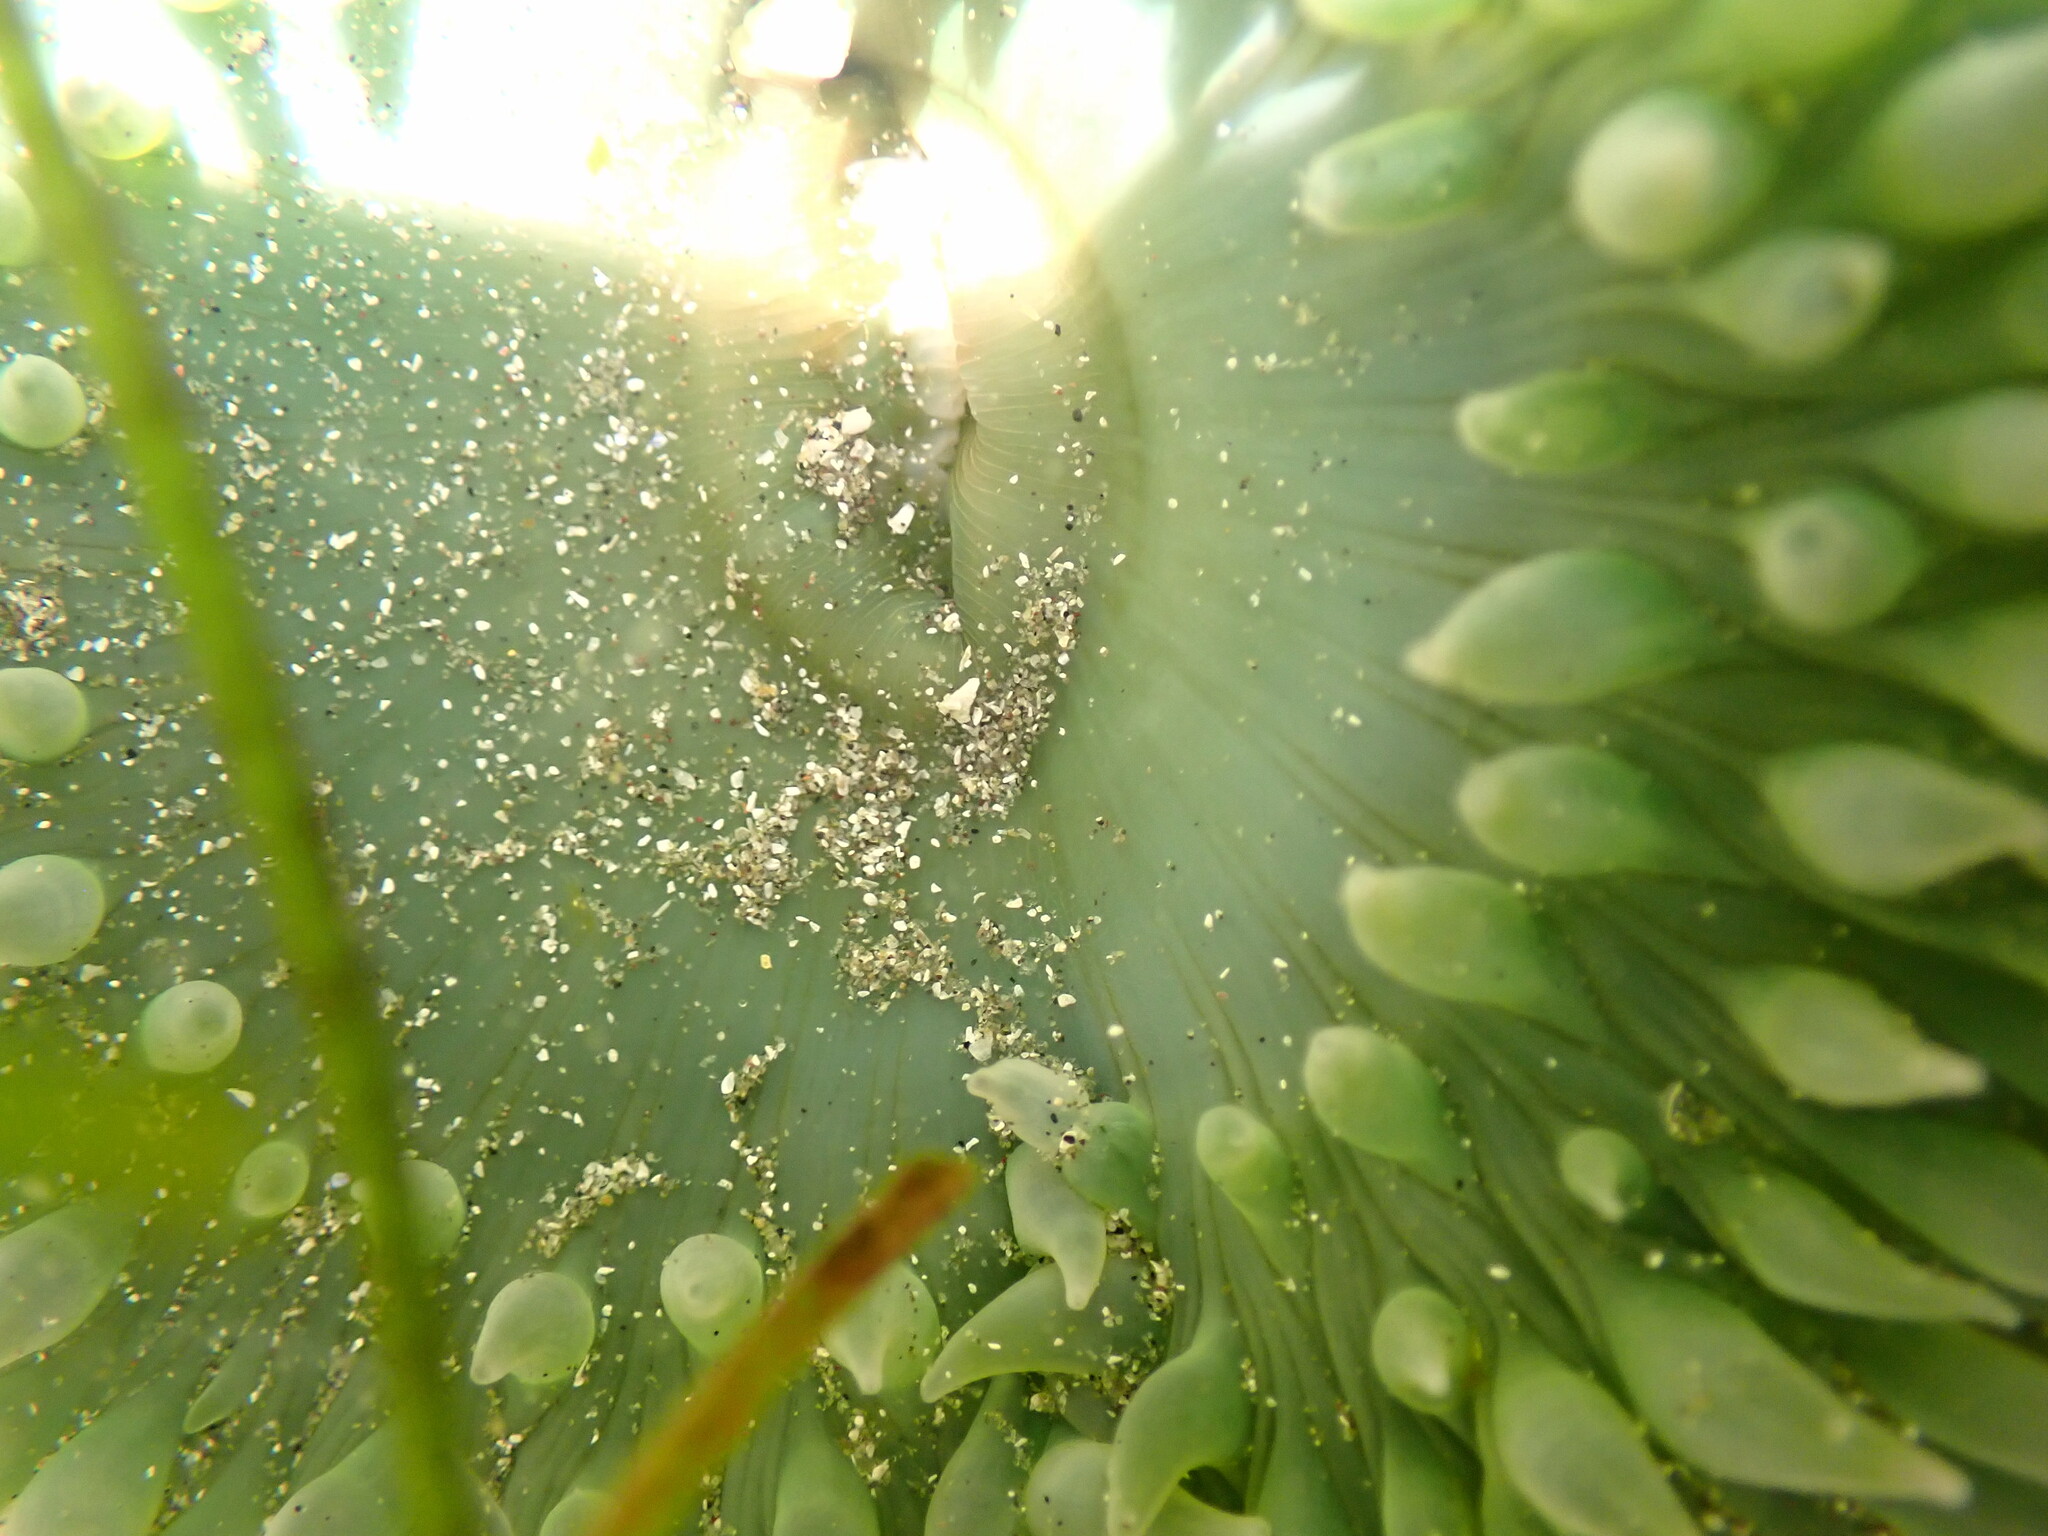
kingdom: Animalia
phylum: Cnidaria
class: Anthozoa
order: Actiniaria
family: Actiniidae
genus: Anthopleura
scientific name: Anthopleura xanthogrammica
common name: Giant green anemone
